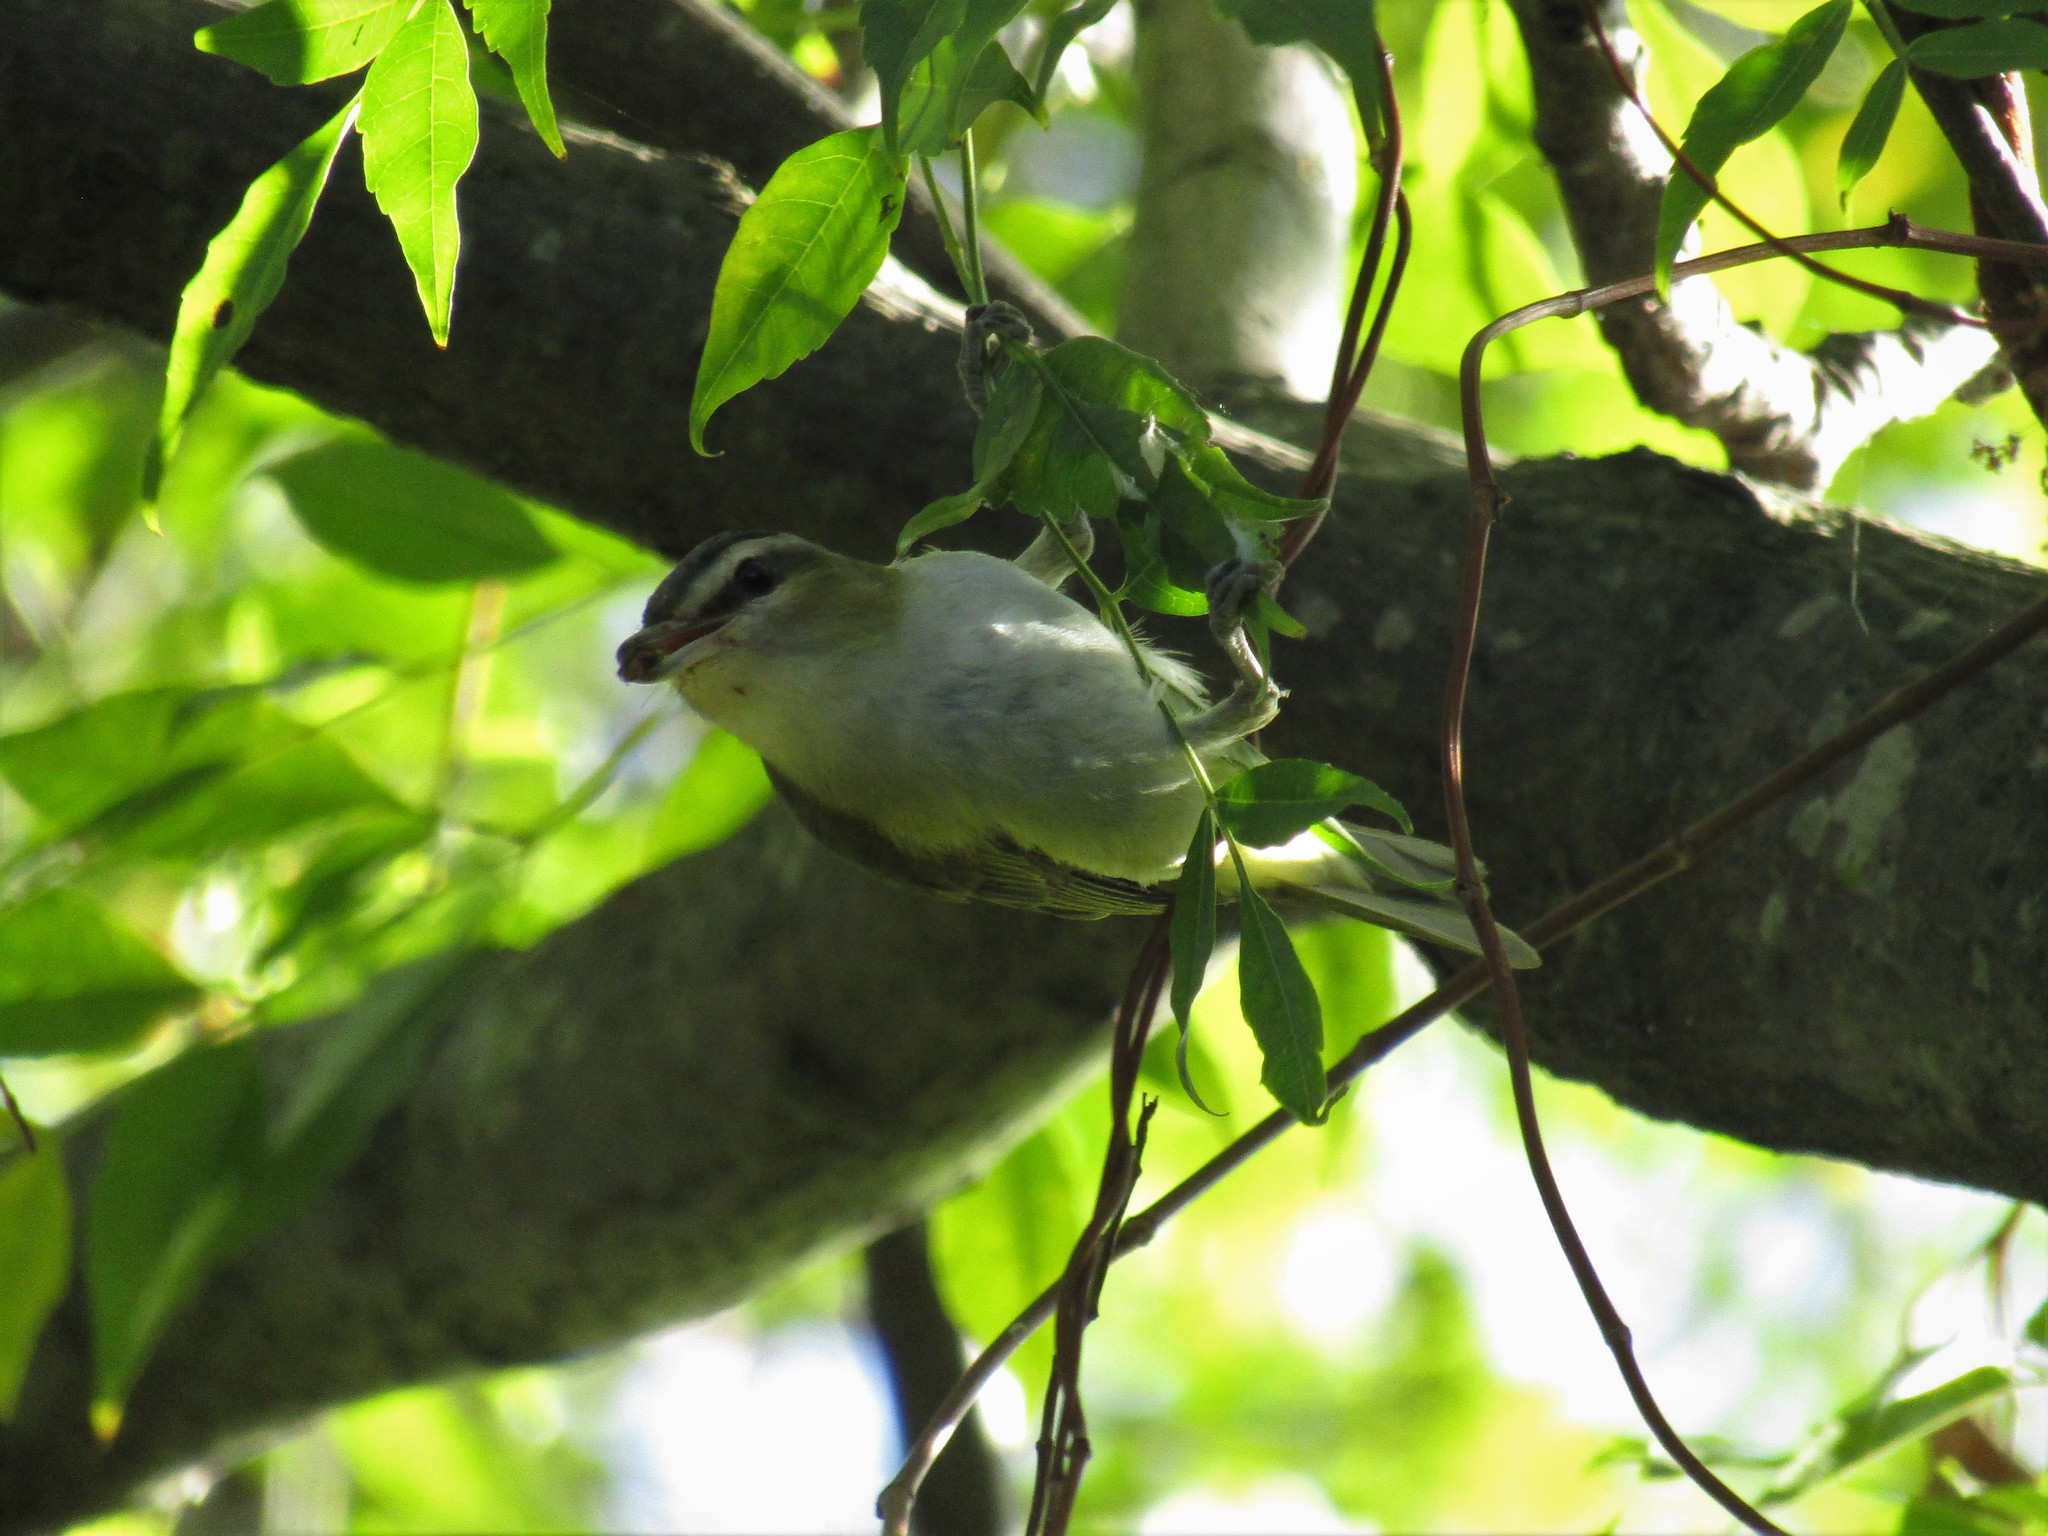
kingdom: Animalia
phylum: Chordata
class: Aves
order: Passeriformes
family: Vireonidae
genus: Vireo
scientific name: Vireo olivaceus
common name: Red-eyed vireo
